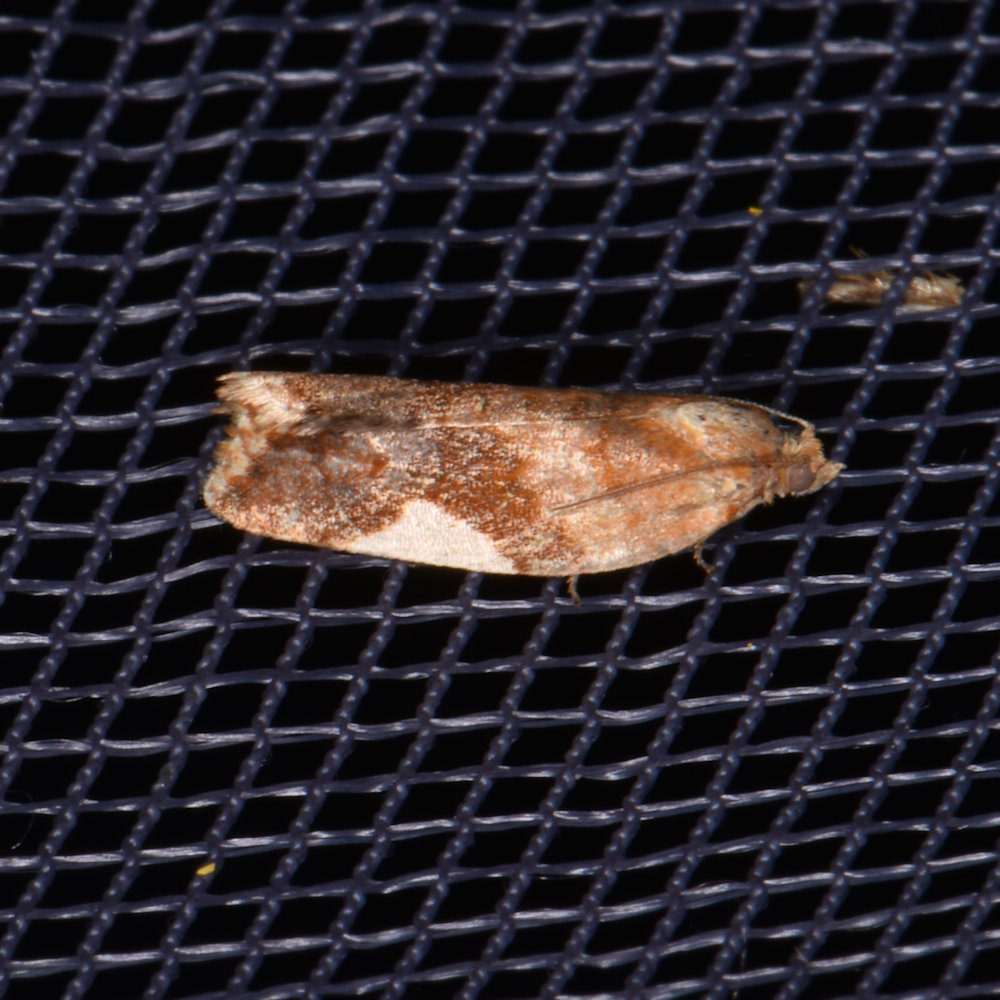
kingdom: Animalia
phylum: Arthropoda
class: Insecta
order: Lepidoptera
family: Tortricidae
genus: Clepsis
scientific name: Clepsis persicana
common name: White triangle tortrix
